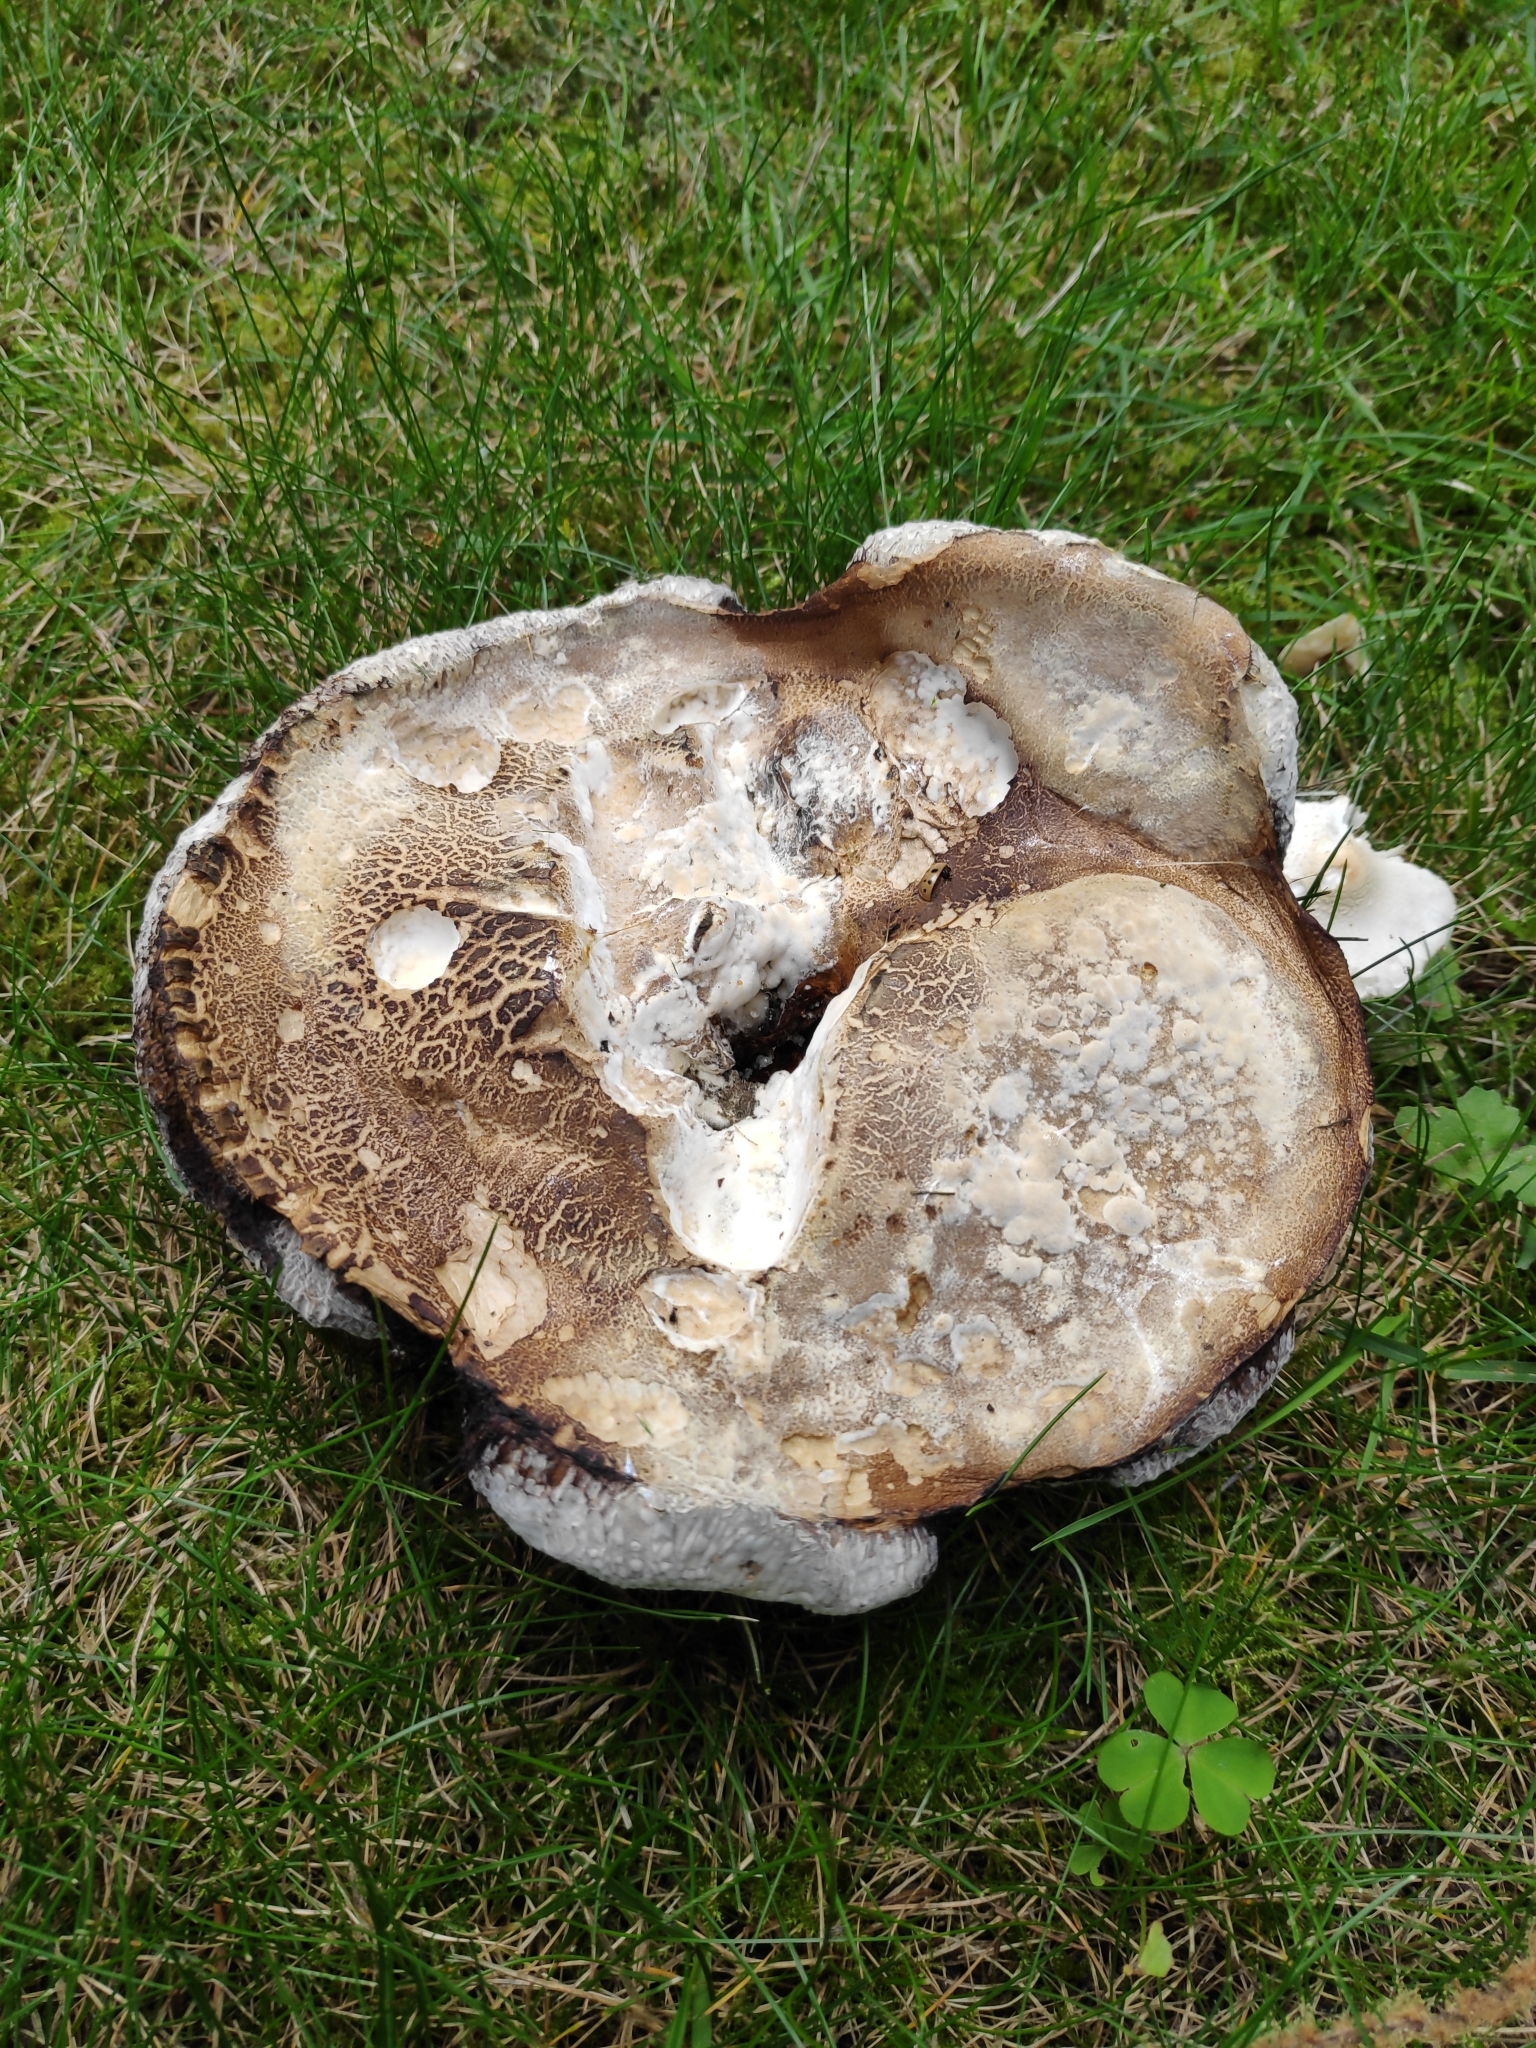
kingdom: Fungi
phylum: Basidiomycota
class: Agaricomycetes
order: Agaricales
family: Lycoperdaceae
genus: Calvatia
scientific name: Calvatia gigantea
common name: Giant puffball
